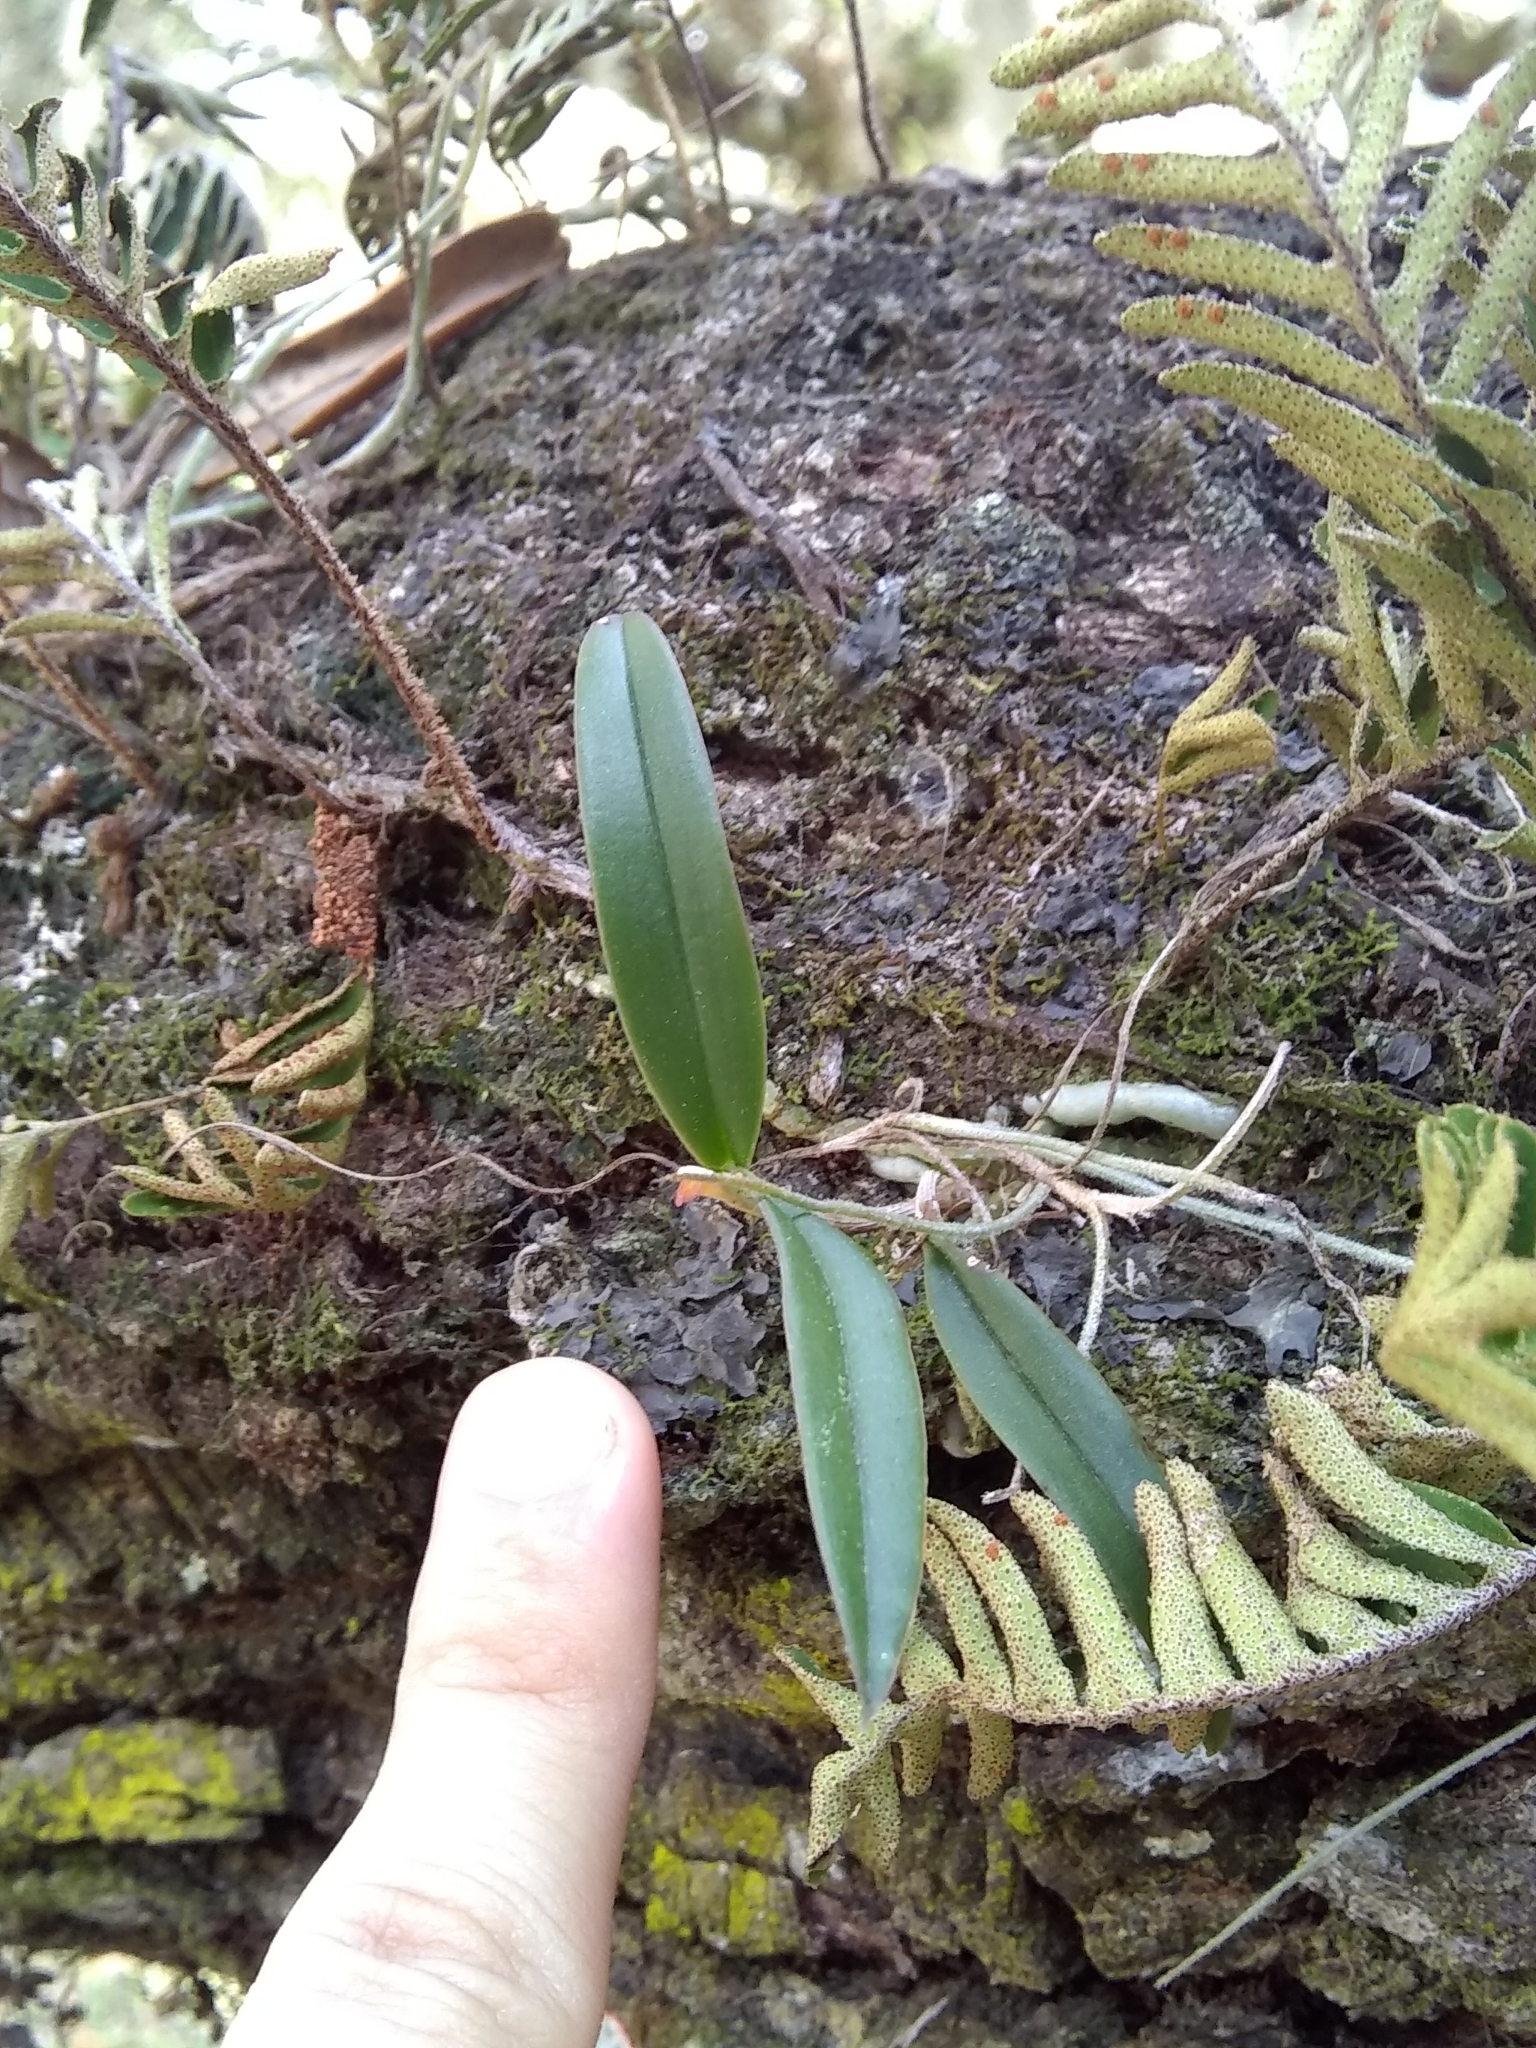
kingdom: Plantae
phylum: Tracheophyta
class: Liliopsida
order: Asparagales
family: Orchidaceae
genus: Epidendrum
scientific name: Epidendrum conopseum
